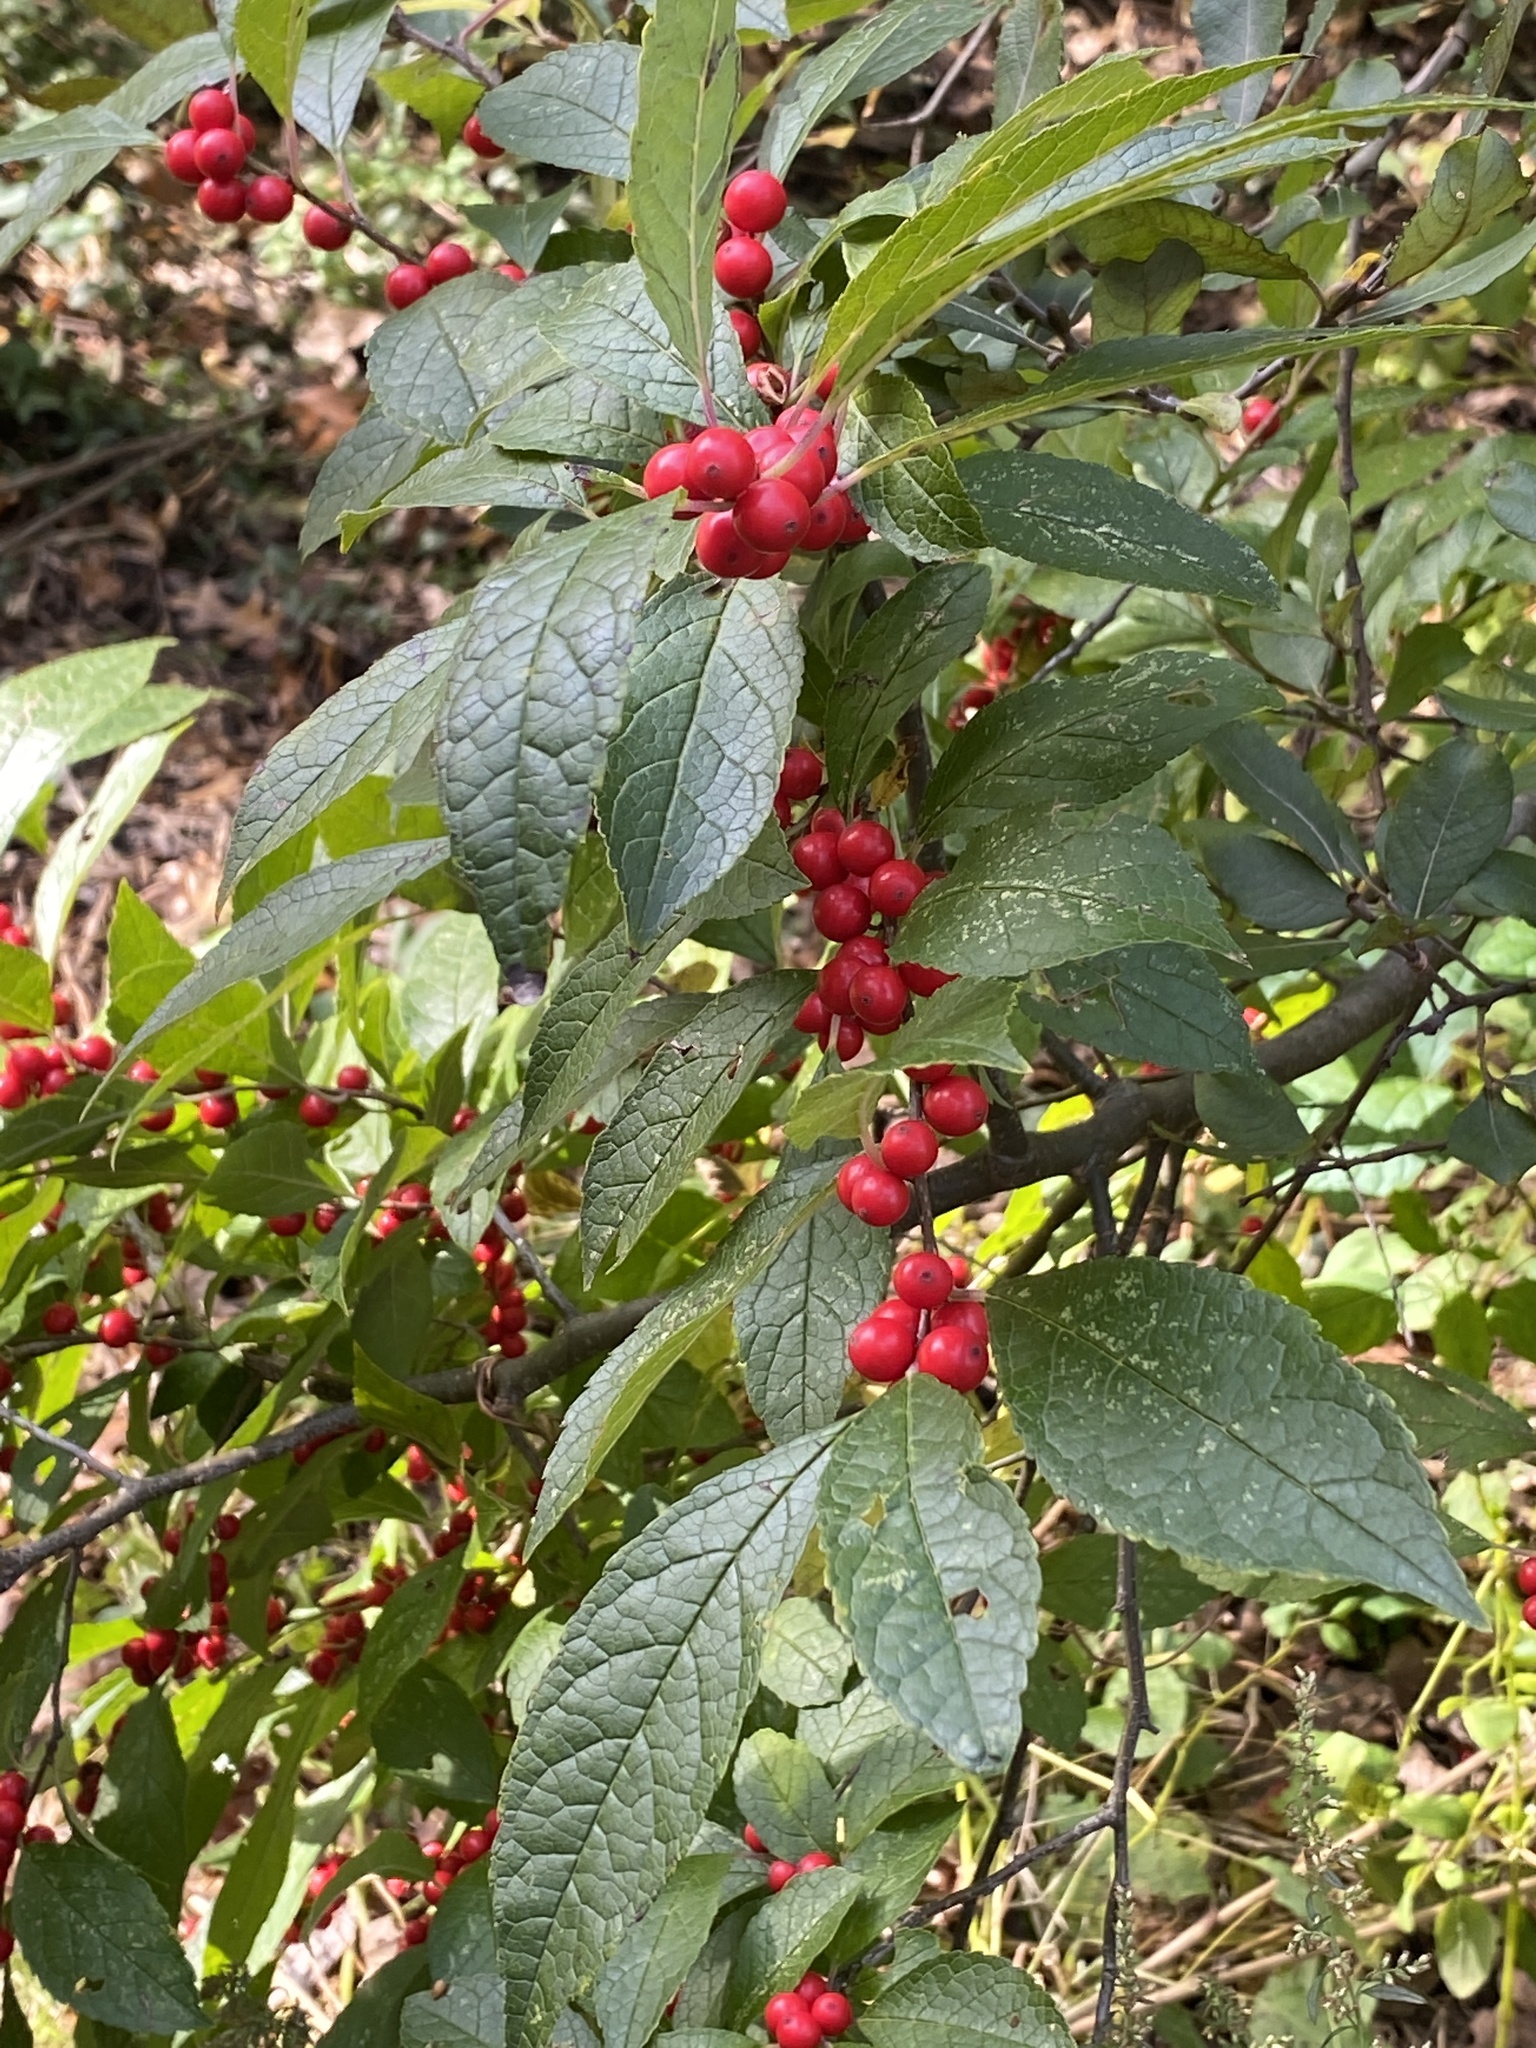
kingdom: Plantae
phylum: Tracheophyta
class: Magnoliopsida
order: Aquifoliales
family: Aquifoliaceae
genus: Ilex
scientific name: Ilex verticillata
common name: Virginia winterberry
